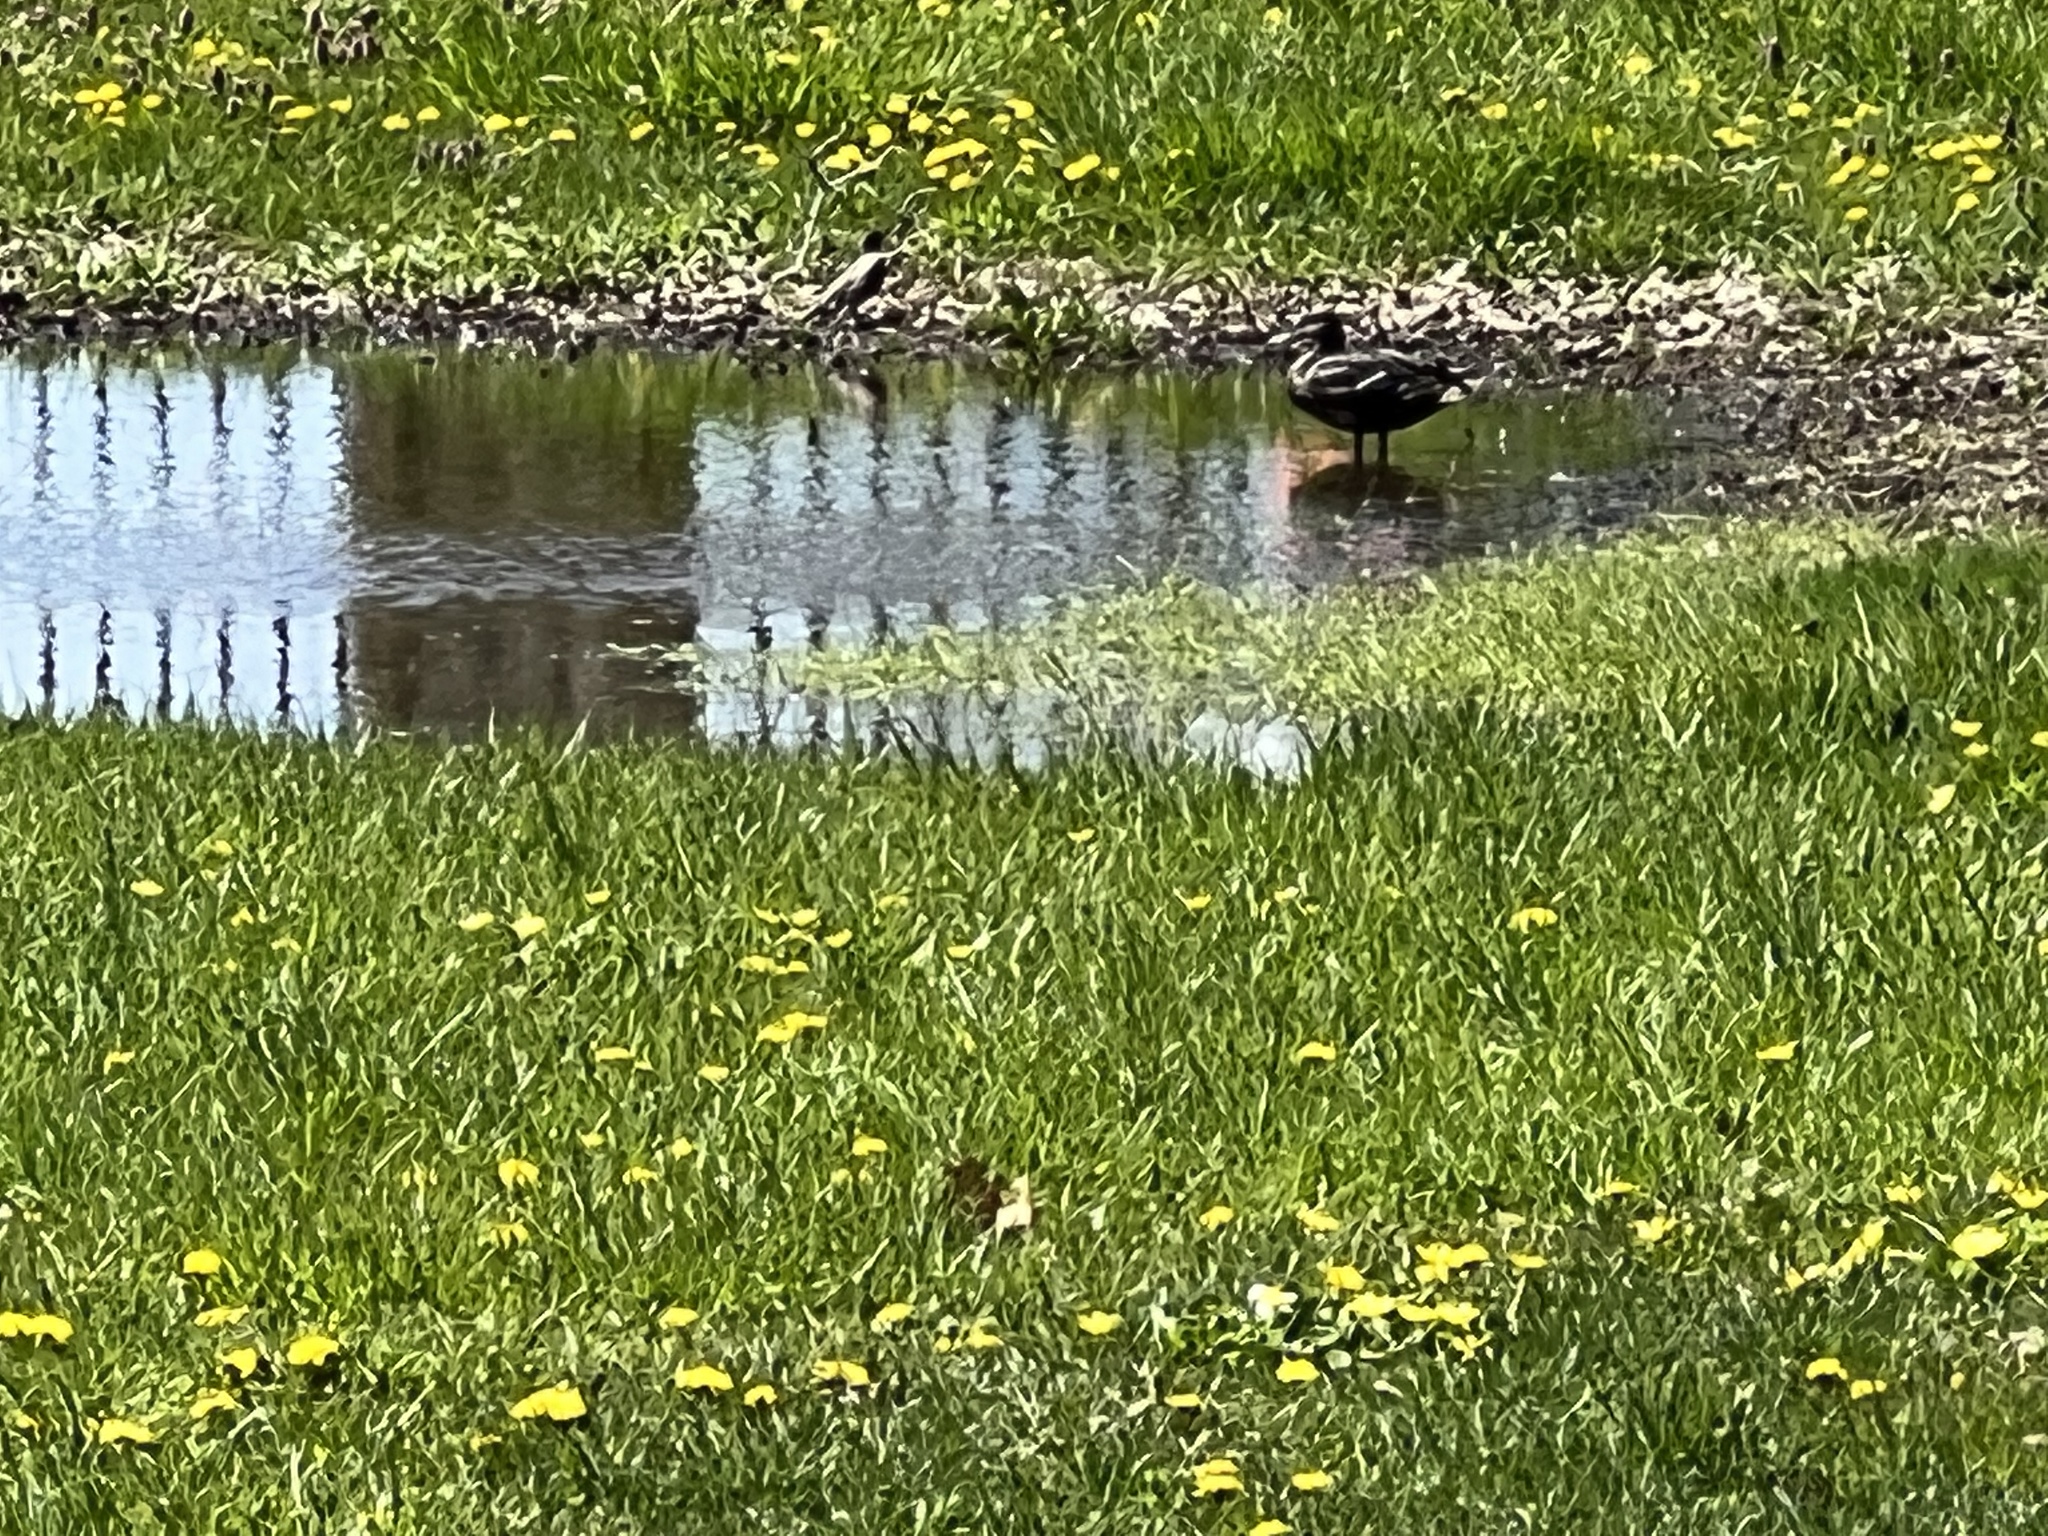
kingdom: Animalia
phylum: Chordata
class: Aves
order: Anseriformes
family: Anatidae
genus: Anas
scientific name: Anas platyrhynchos
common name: Mallard
